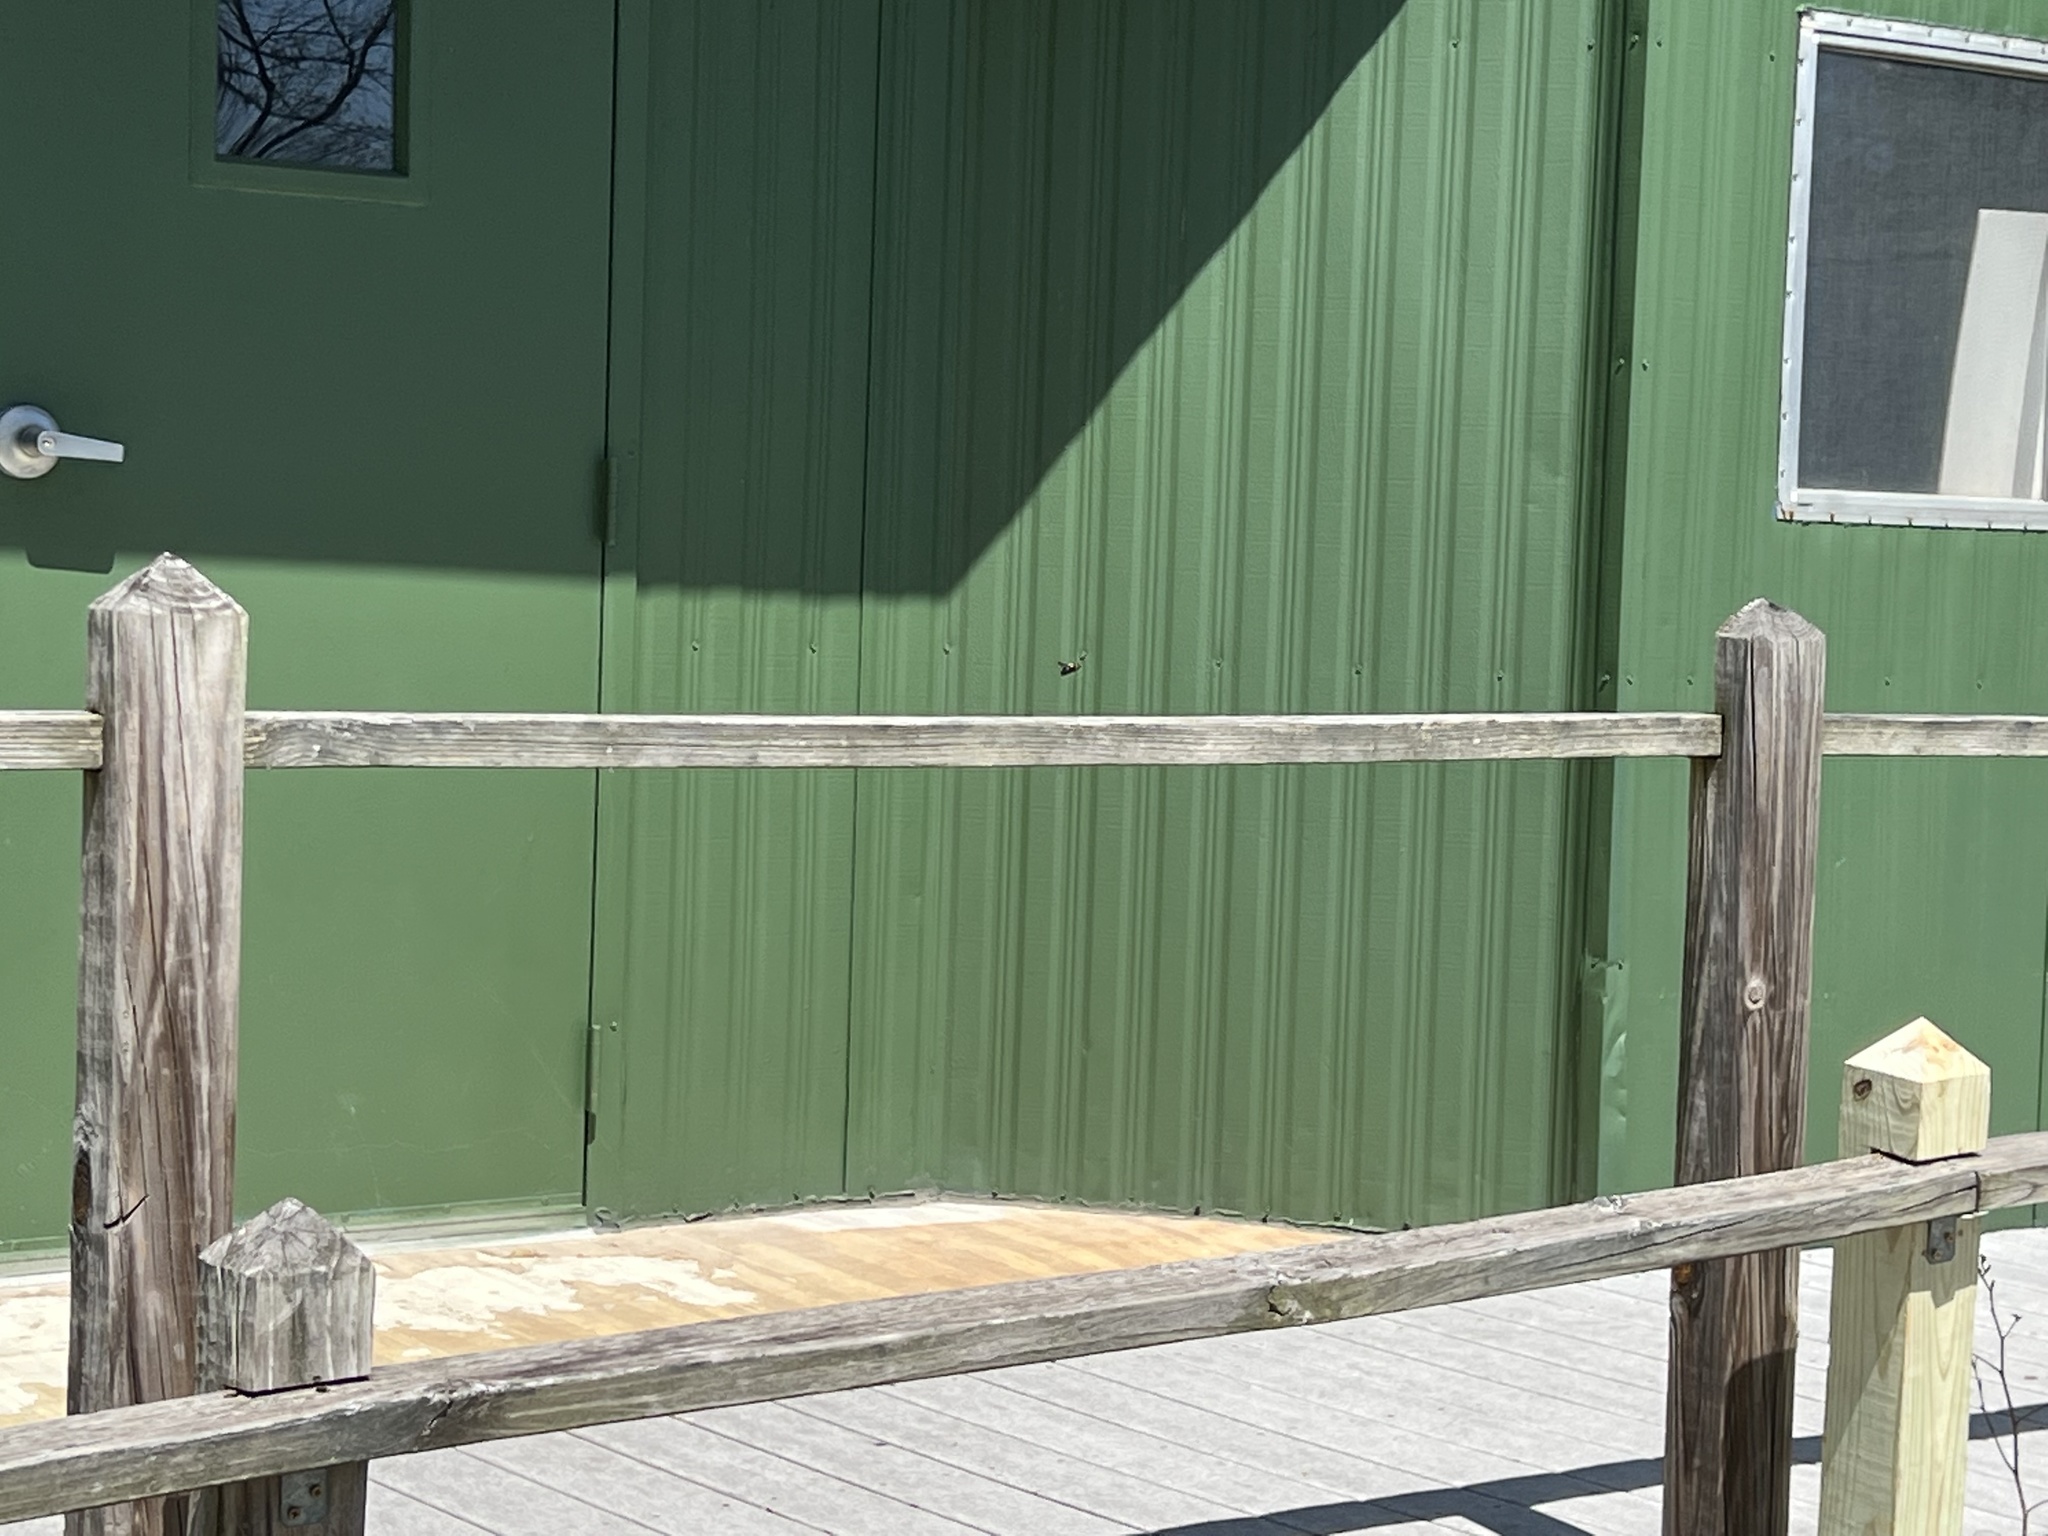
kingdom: Animalia
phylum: Arthropoda
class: Insecta
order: Hymenoptera
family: Apidae
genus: Xylocopa
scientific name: Xylocopa virginica
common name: Carpenter bee
